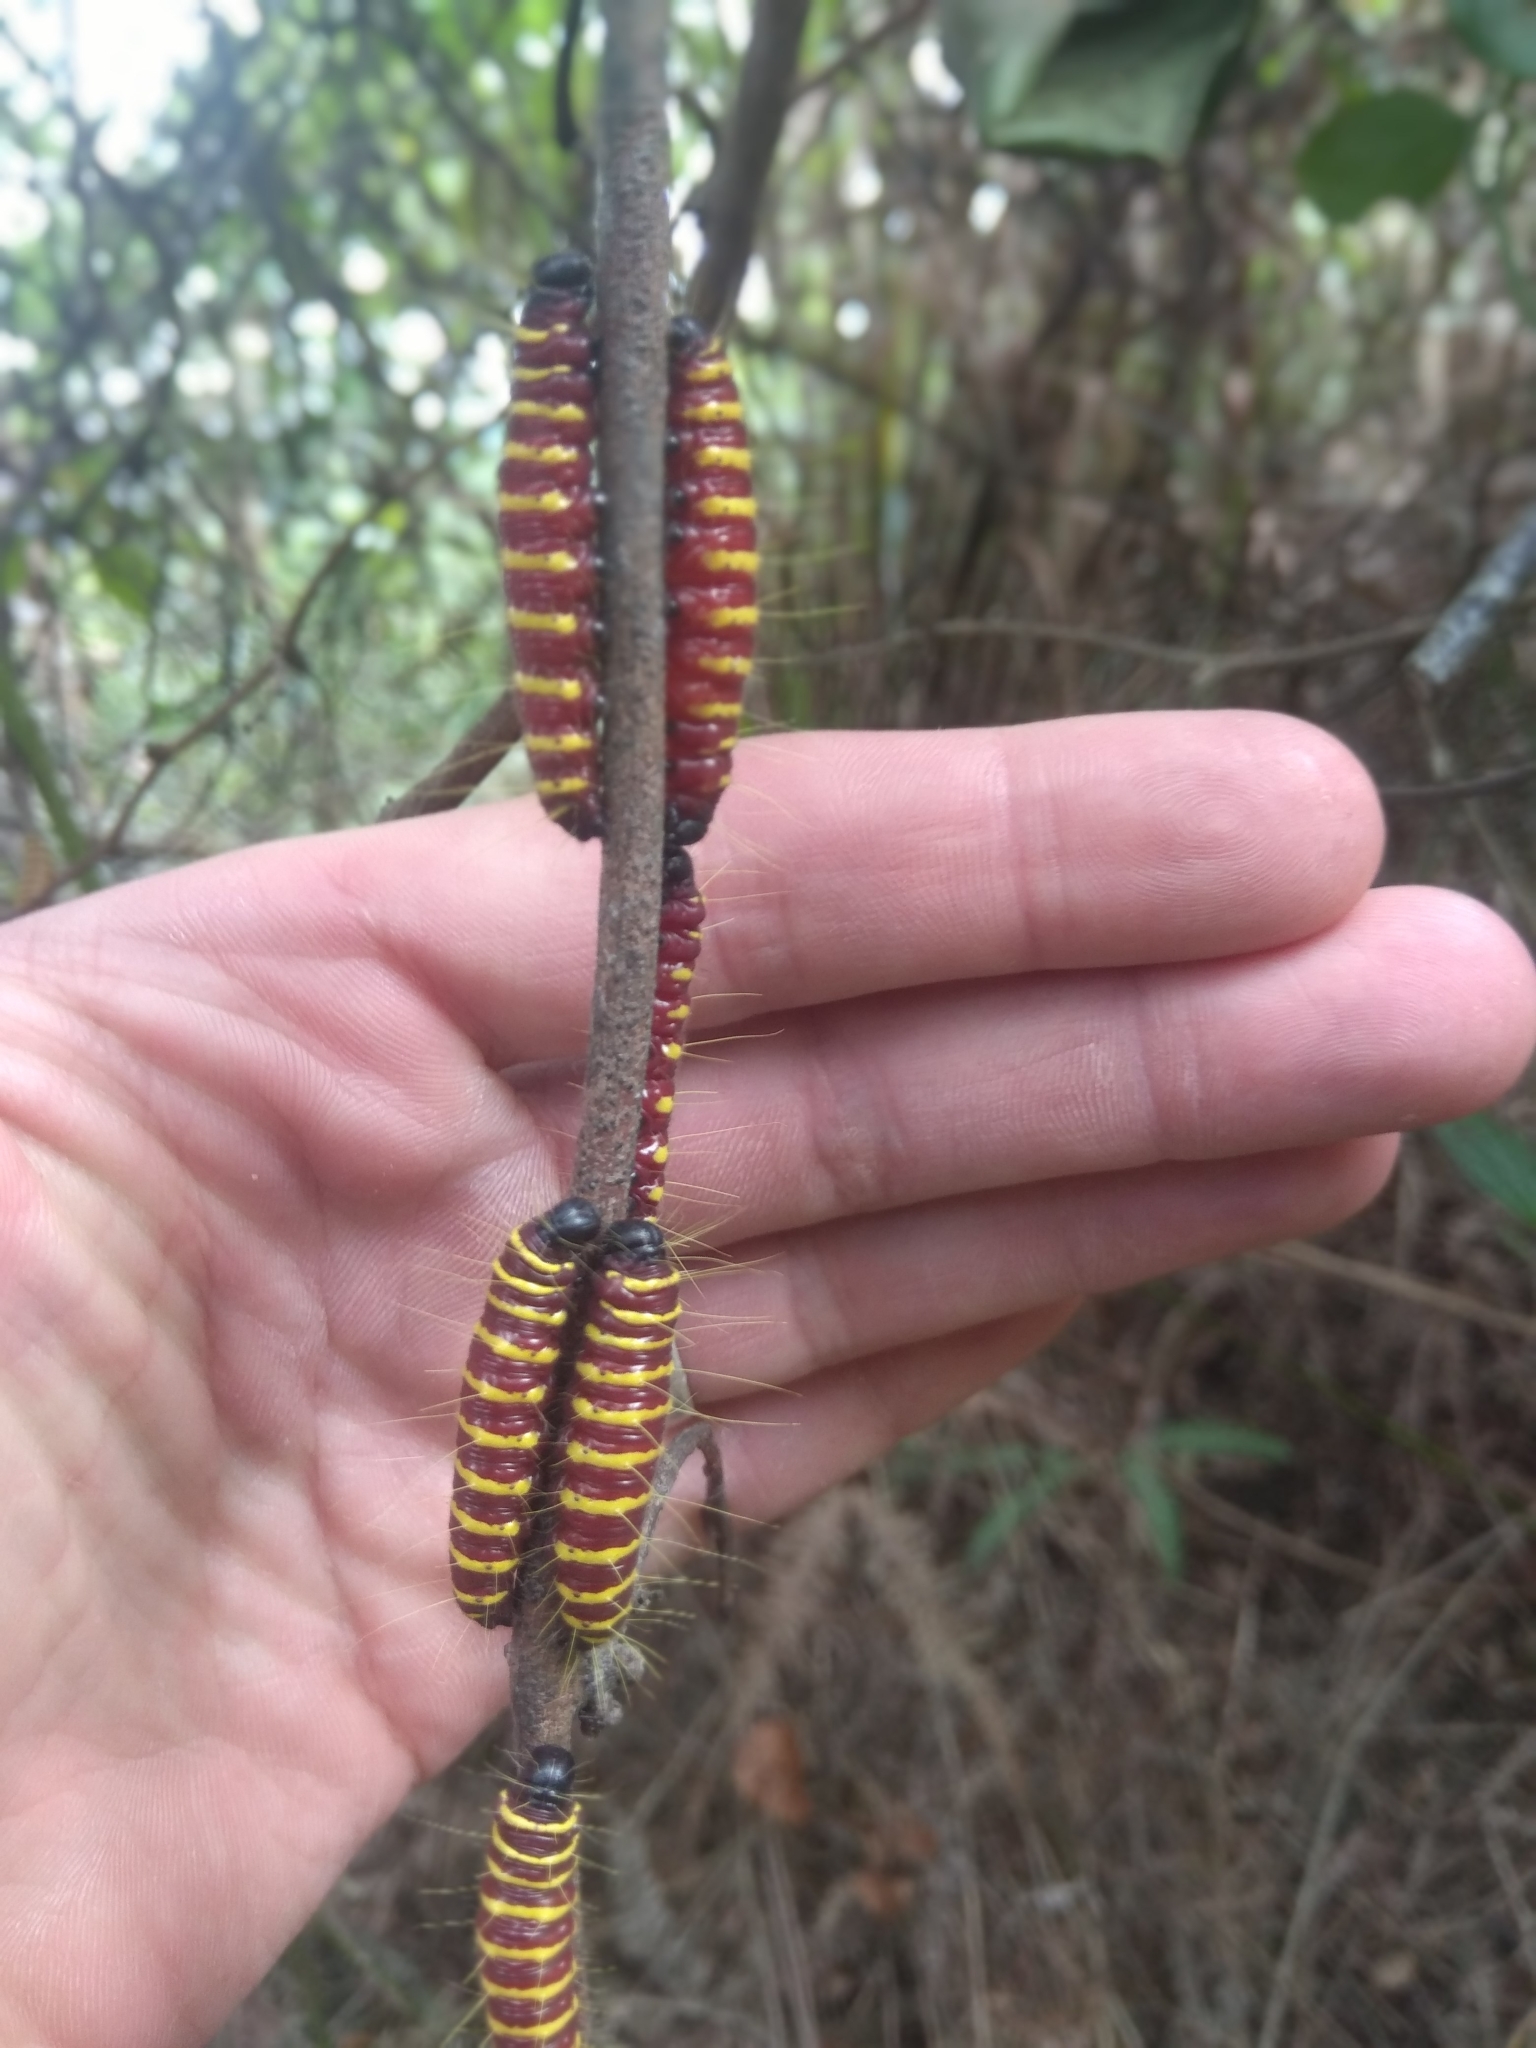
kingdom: Animalia
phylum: Arthropoda
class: Insecta
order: Lepidoptera
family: Pieridae
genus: Delias
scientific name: Delias pasithoe
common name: Red-base jezebel
